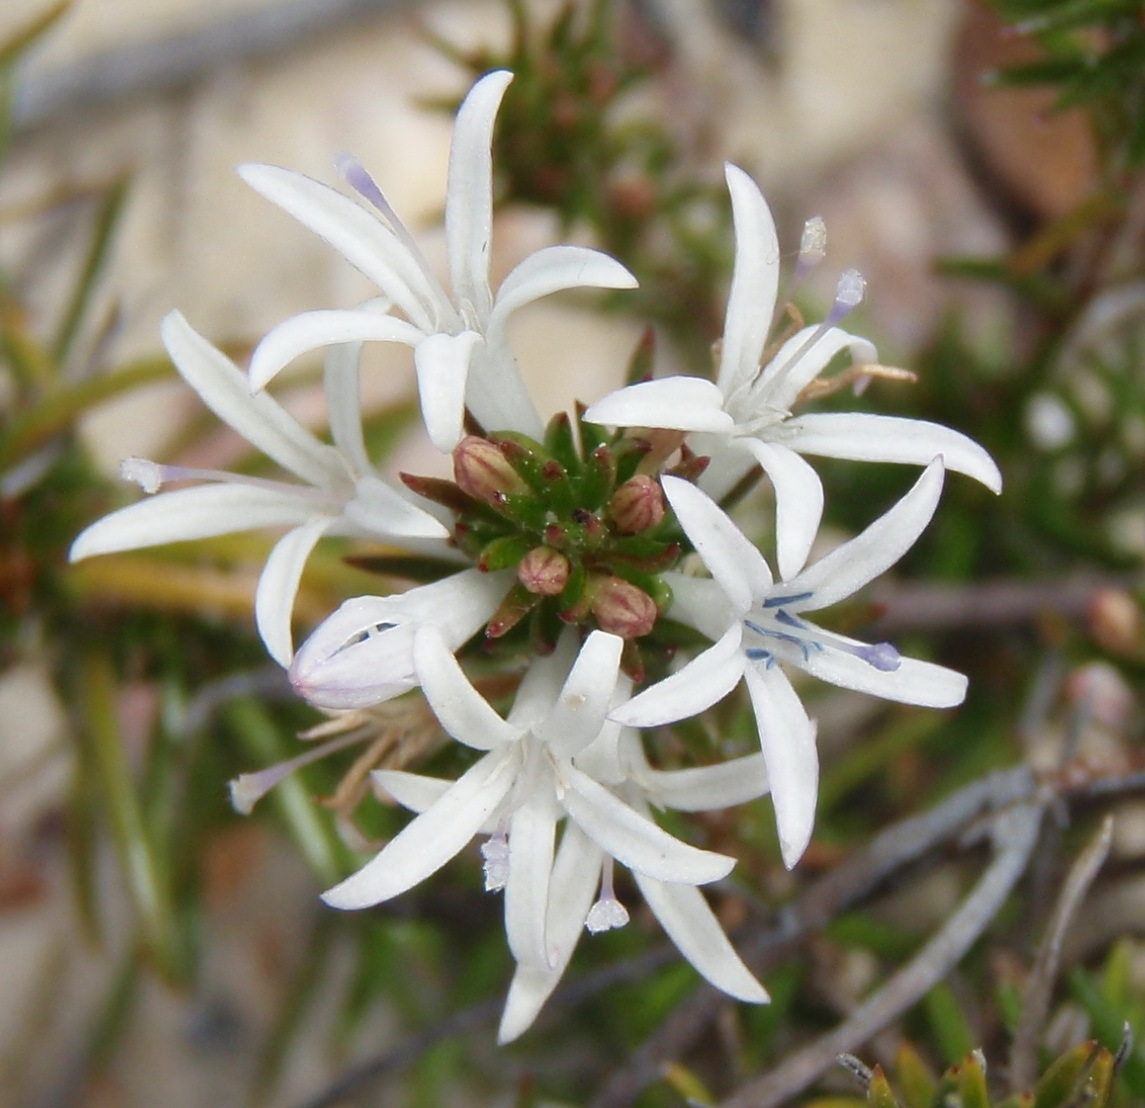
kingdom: Plantae
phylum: Tracheophyta
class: Magnoliopsida
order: Asterales
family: Campanulaceae
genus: Merciera
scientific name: Merciera brevifolia
